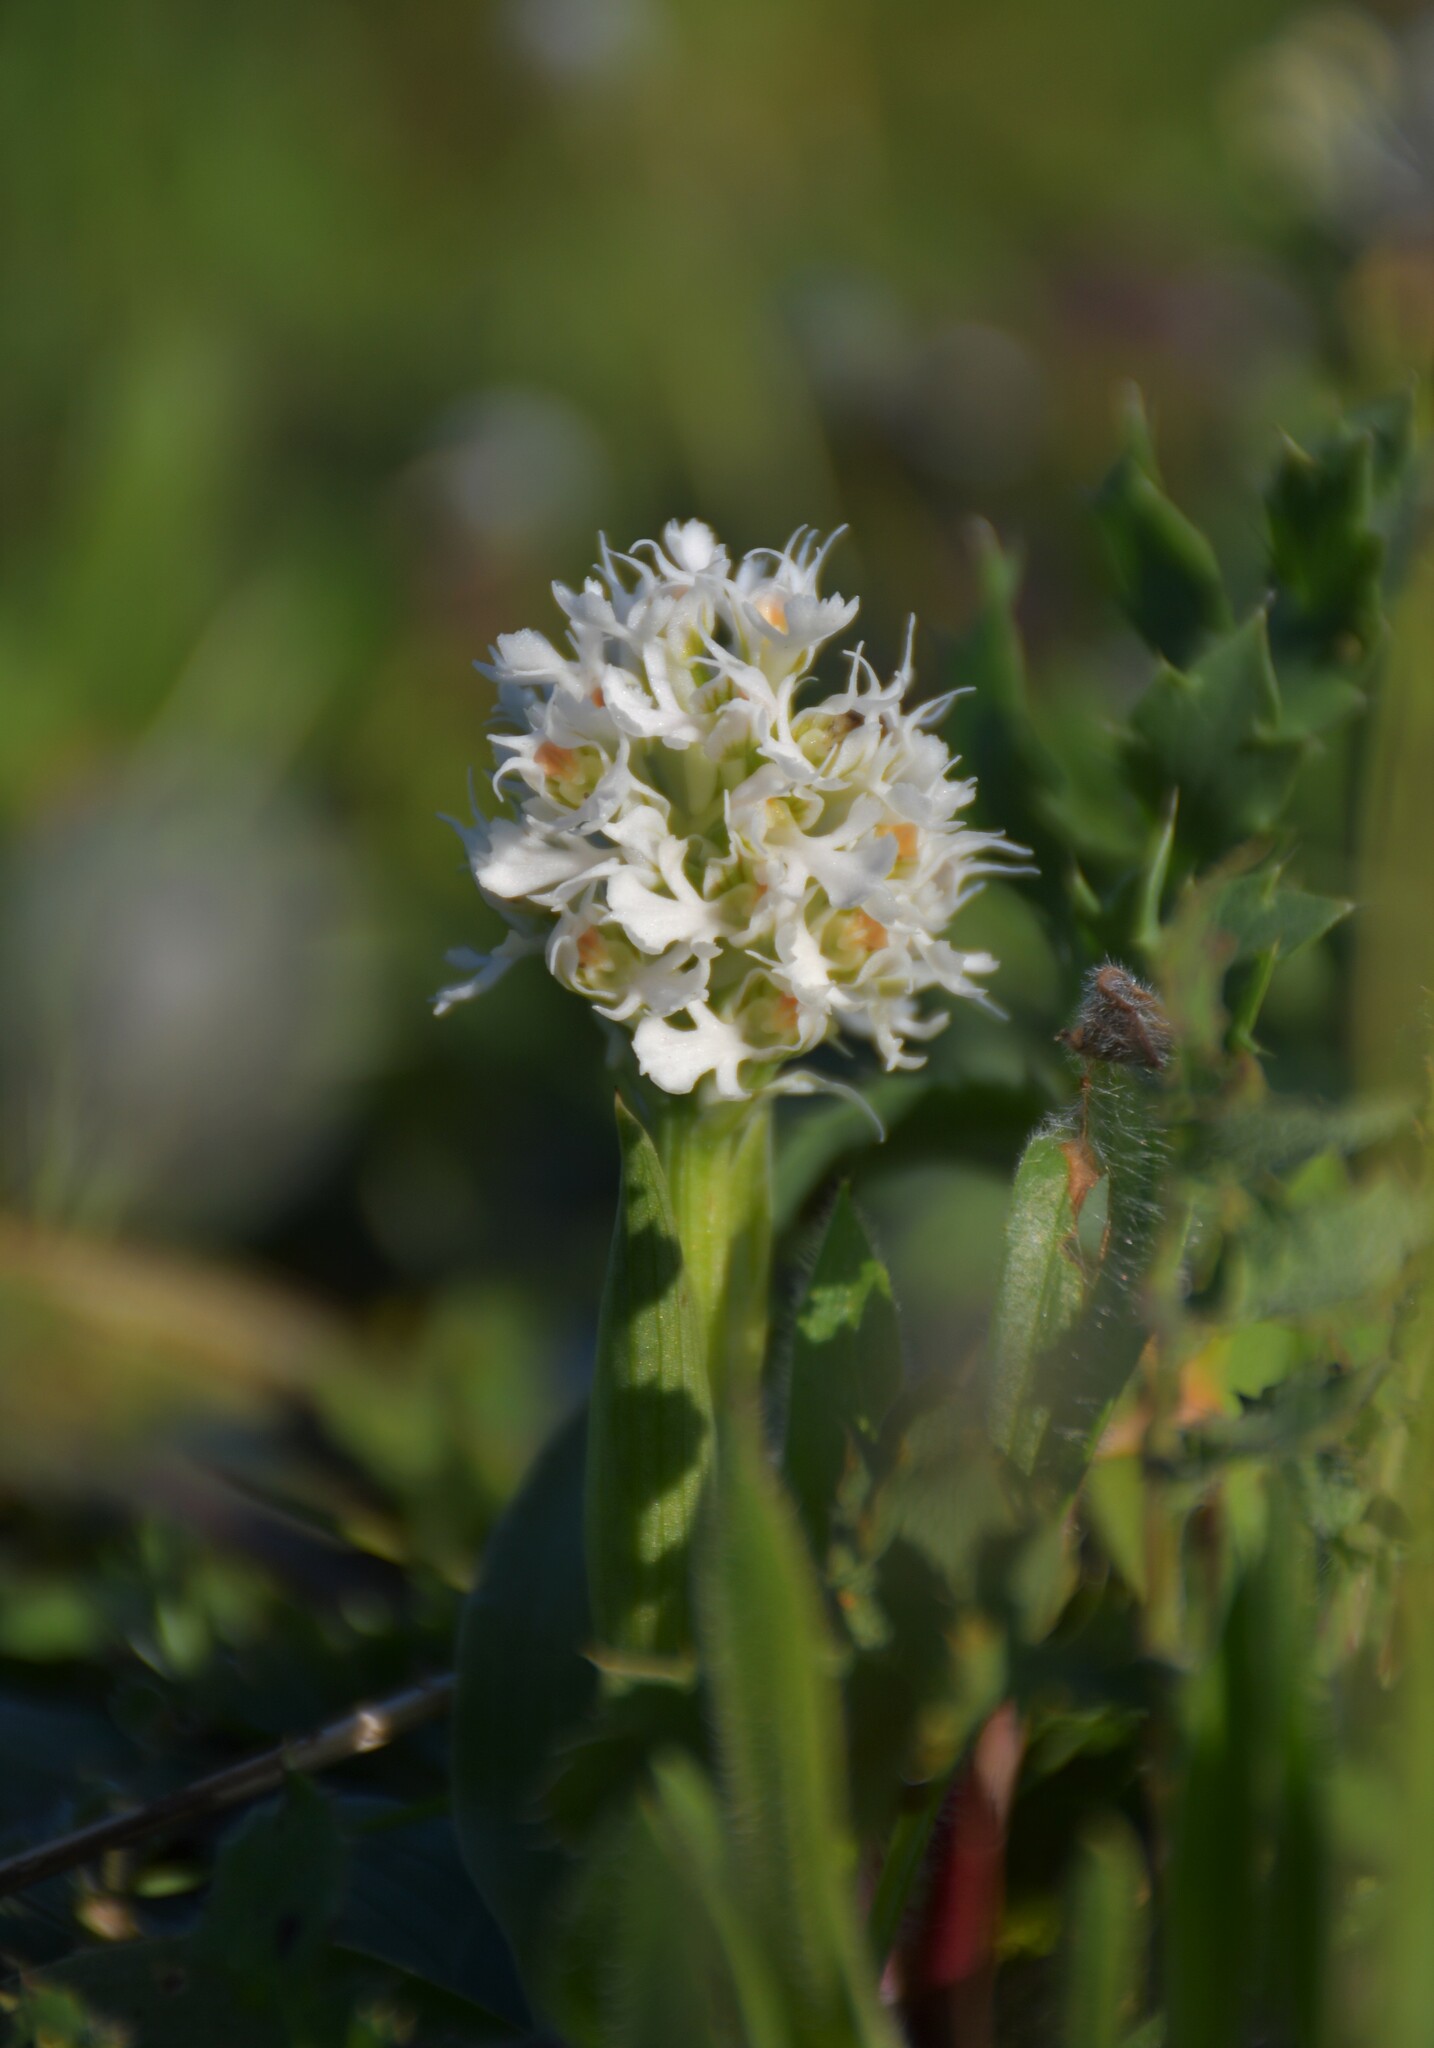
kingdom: Plantae
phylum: Tracheophyta
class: Liliopsida
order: Asparagales
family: Orchidaceae
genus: Neotinea
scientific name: Neotinea conica
